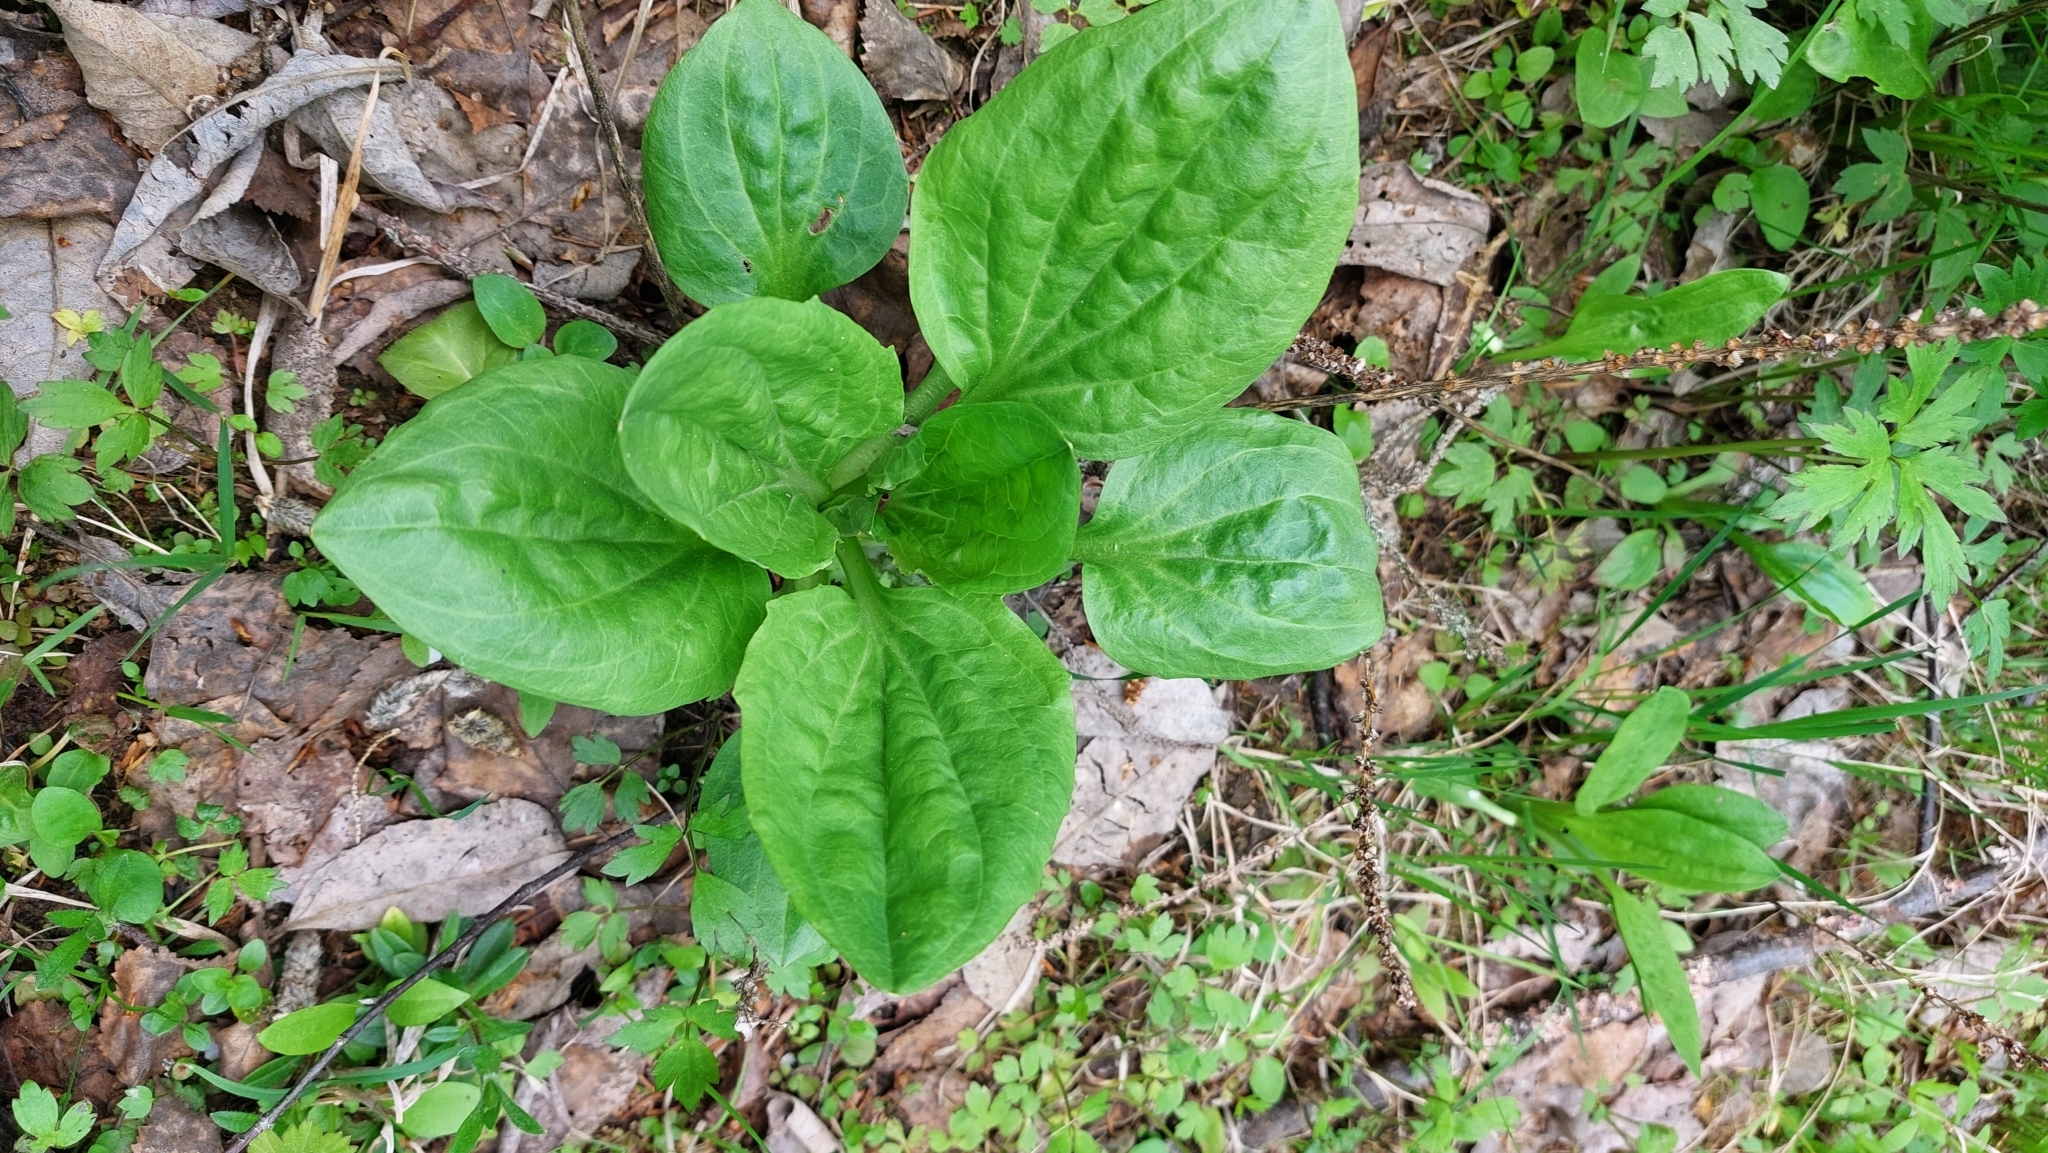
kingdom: Plantae
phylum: Tracheophyta
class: Magnoliopsida
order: Lamiales
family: Plantaginaceae
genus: Plantago
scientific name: Plantago major
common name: Common plantain
